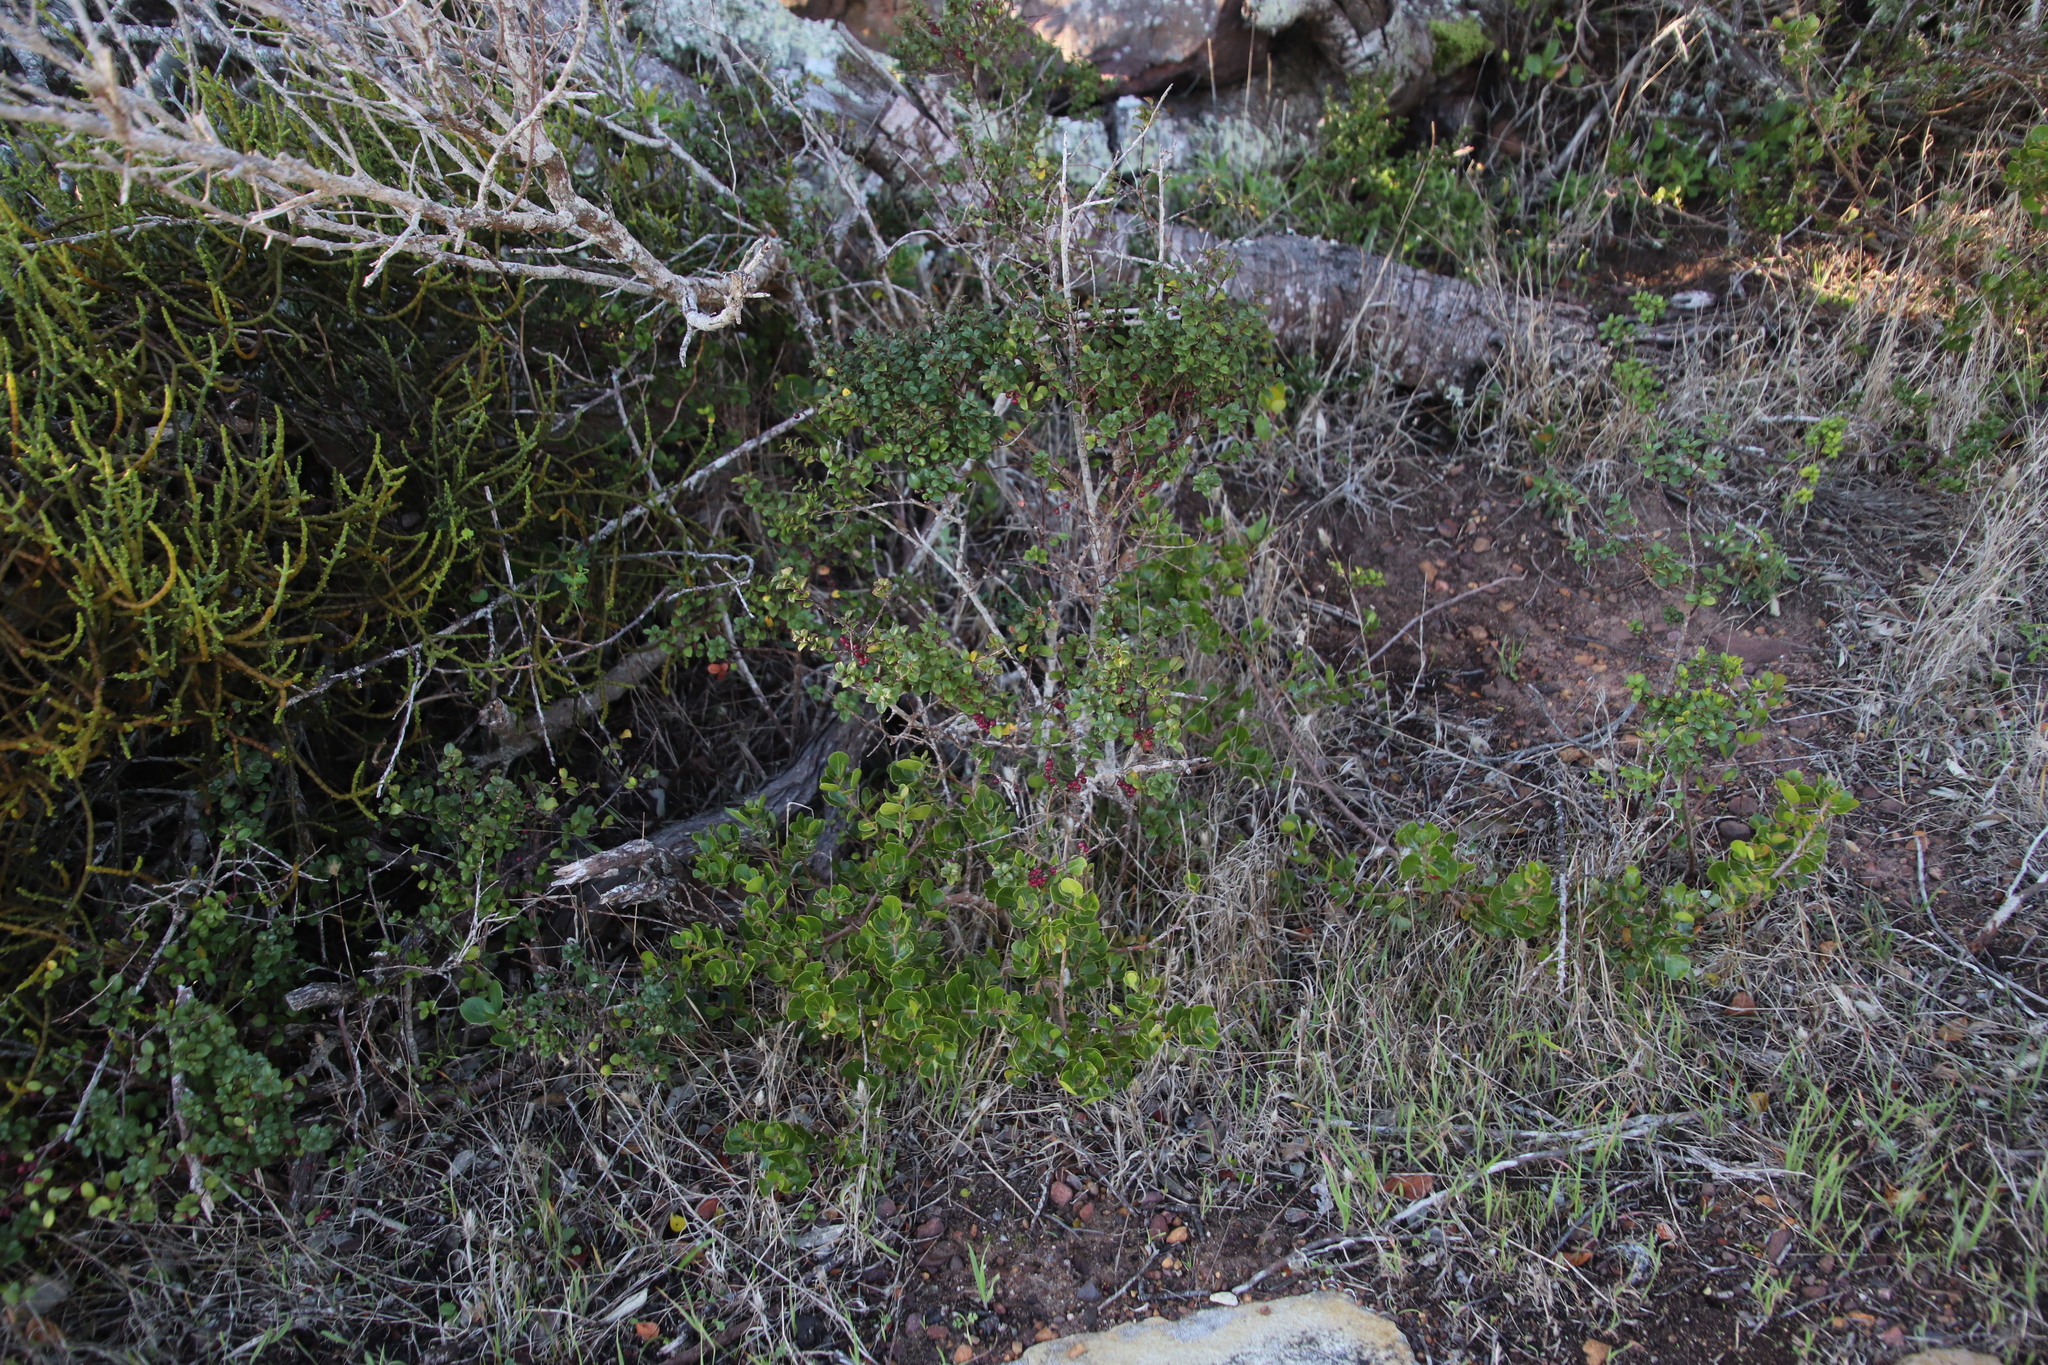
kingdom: Plantae
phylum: Tracheophyta
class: Magnoliopsida
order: Ericales
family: Primulaceae
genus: Myrsine
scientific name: Myrsine africana
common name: African-boxwood
